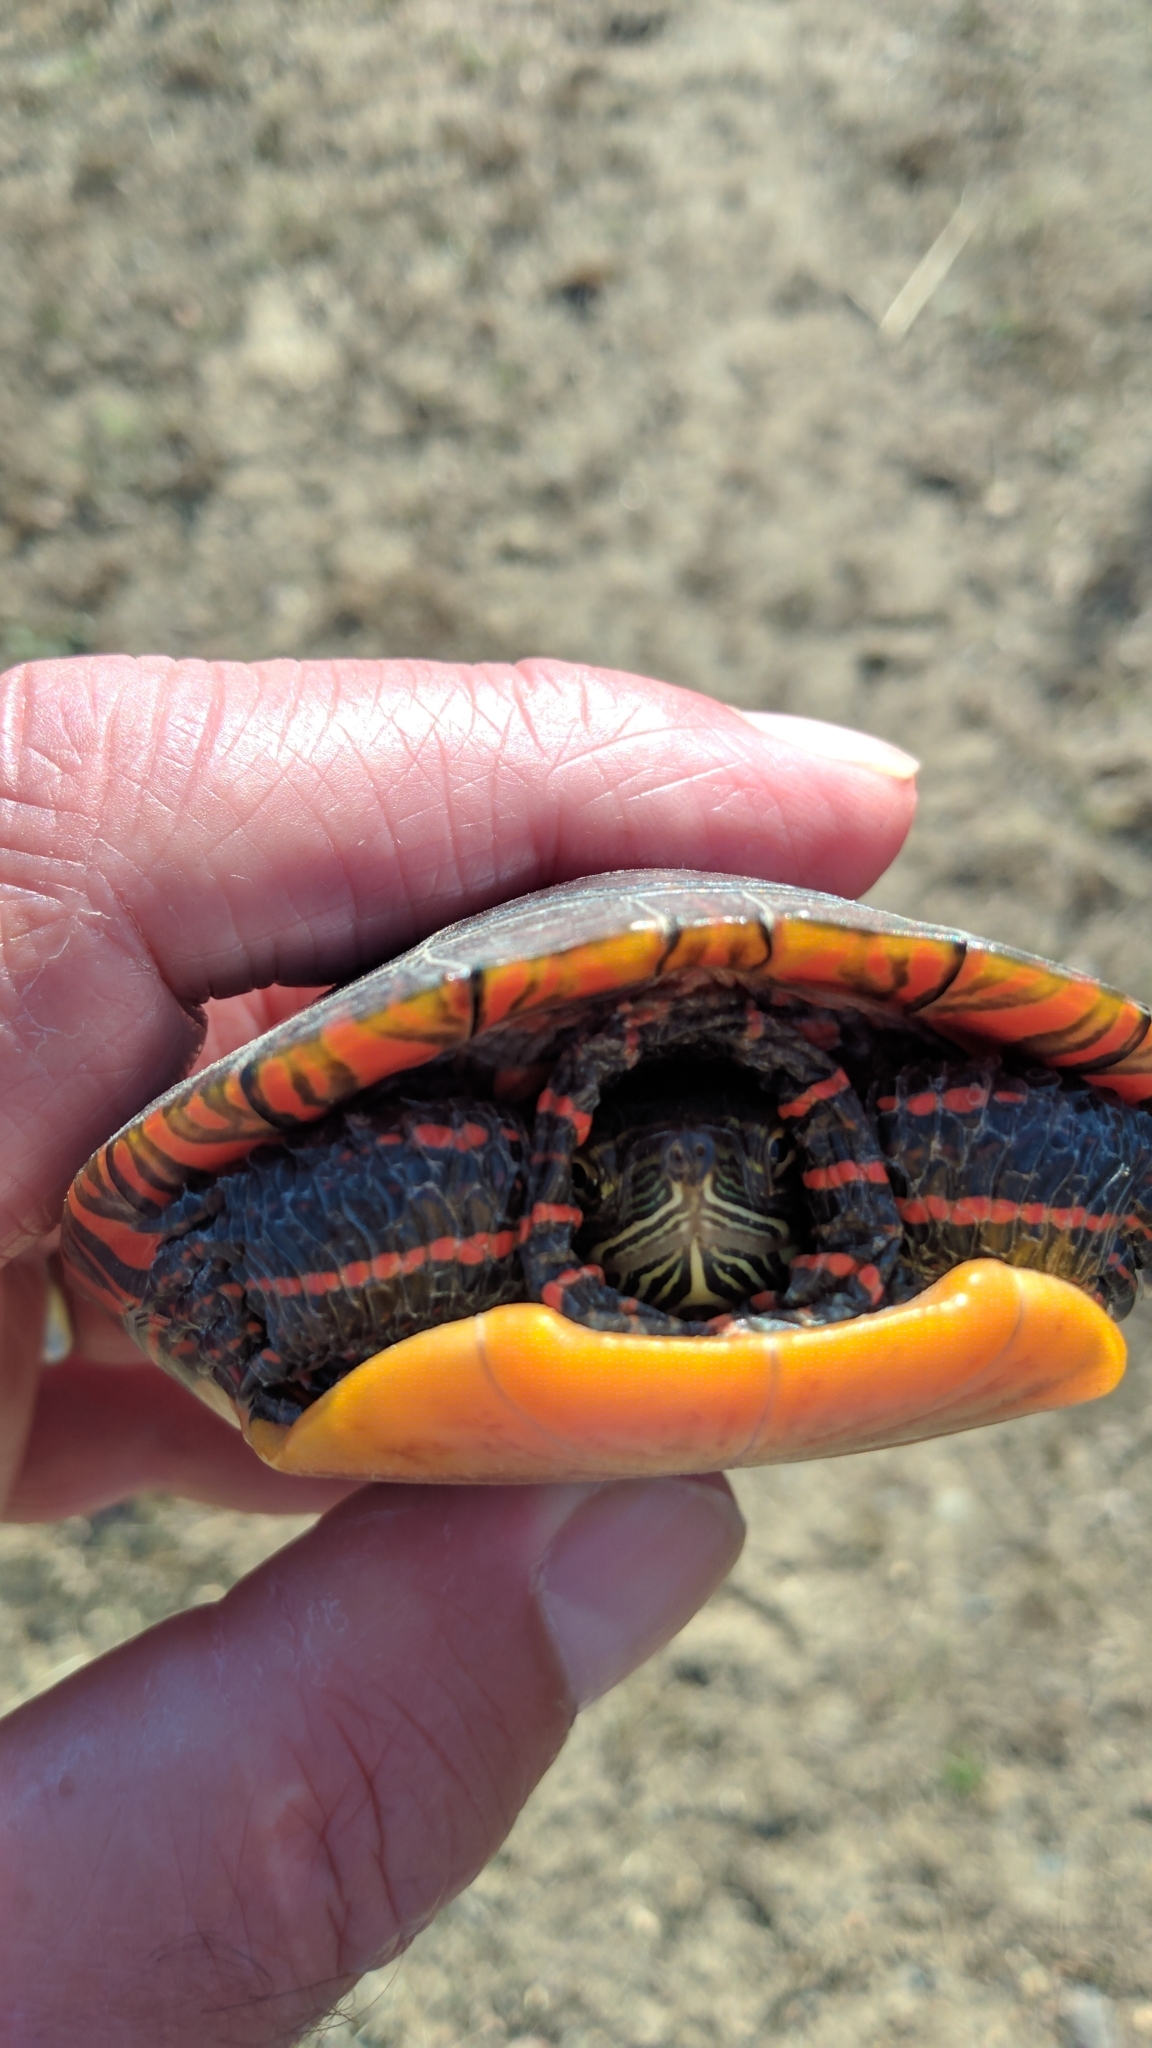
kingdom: Animalia
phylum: Chordata
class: Testudines
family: Emydidae
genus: Chrysemys
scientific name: Chrysemys picta
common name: Painted turtle
